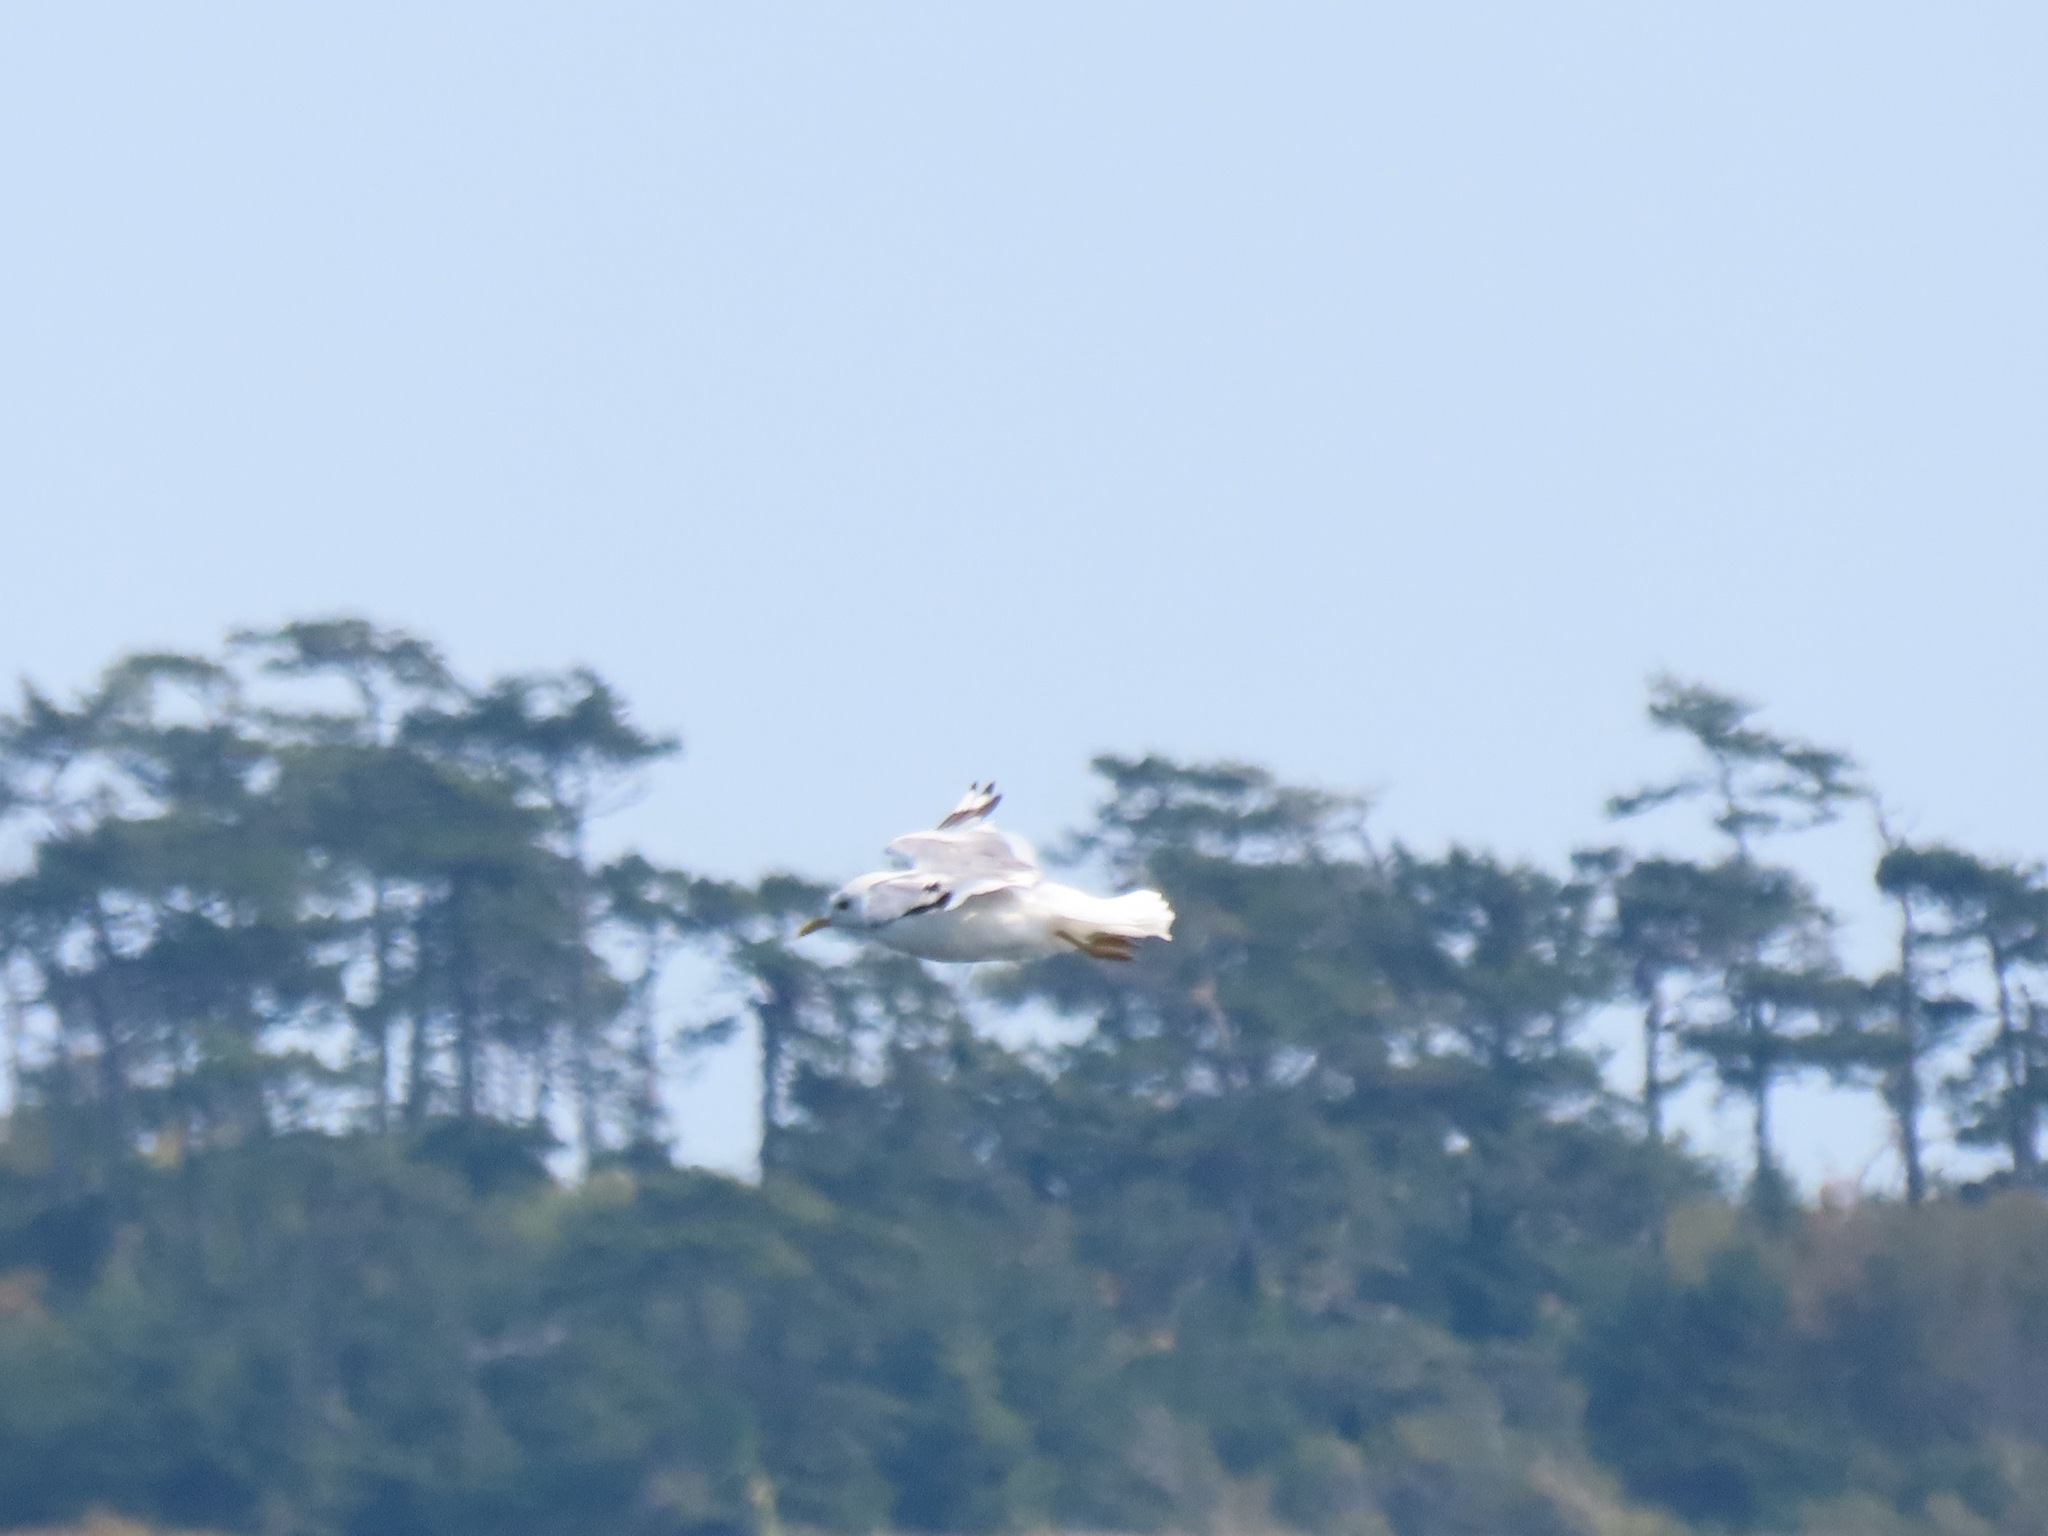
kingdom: Animalia
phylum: Chordata
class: Aves
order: Charadriiformes
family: Laridae
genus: Larus
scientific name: Larus brachyrhynchus
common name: Short-billed gull
